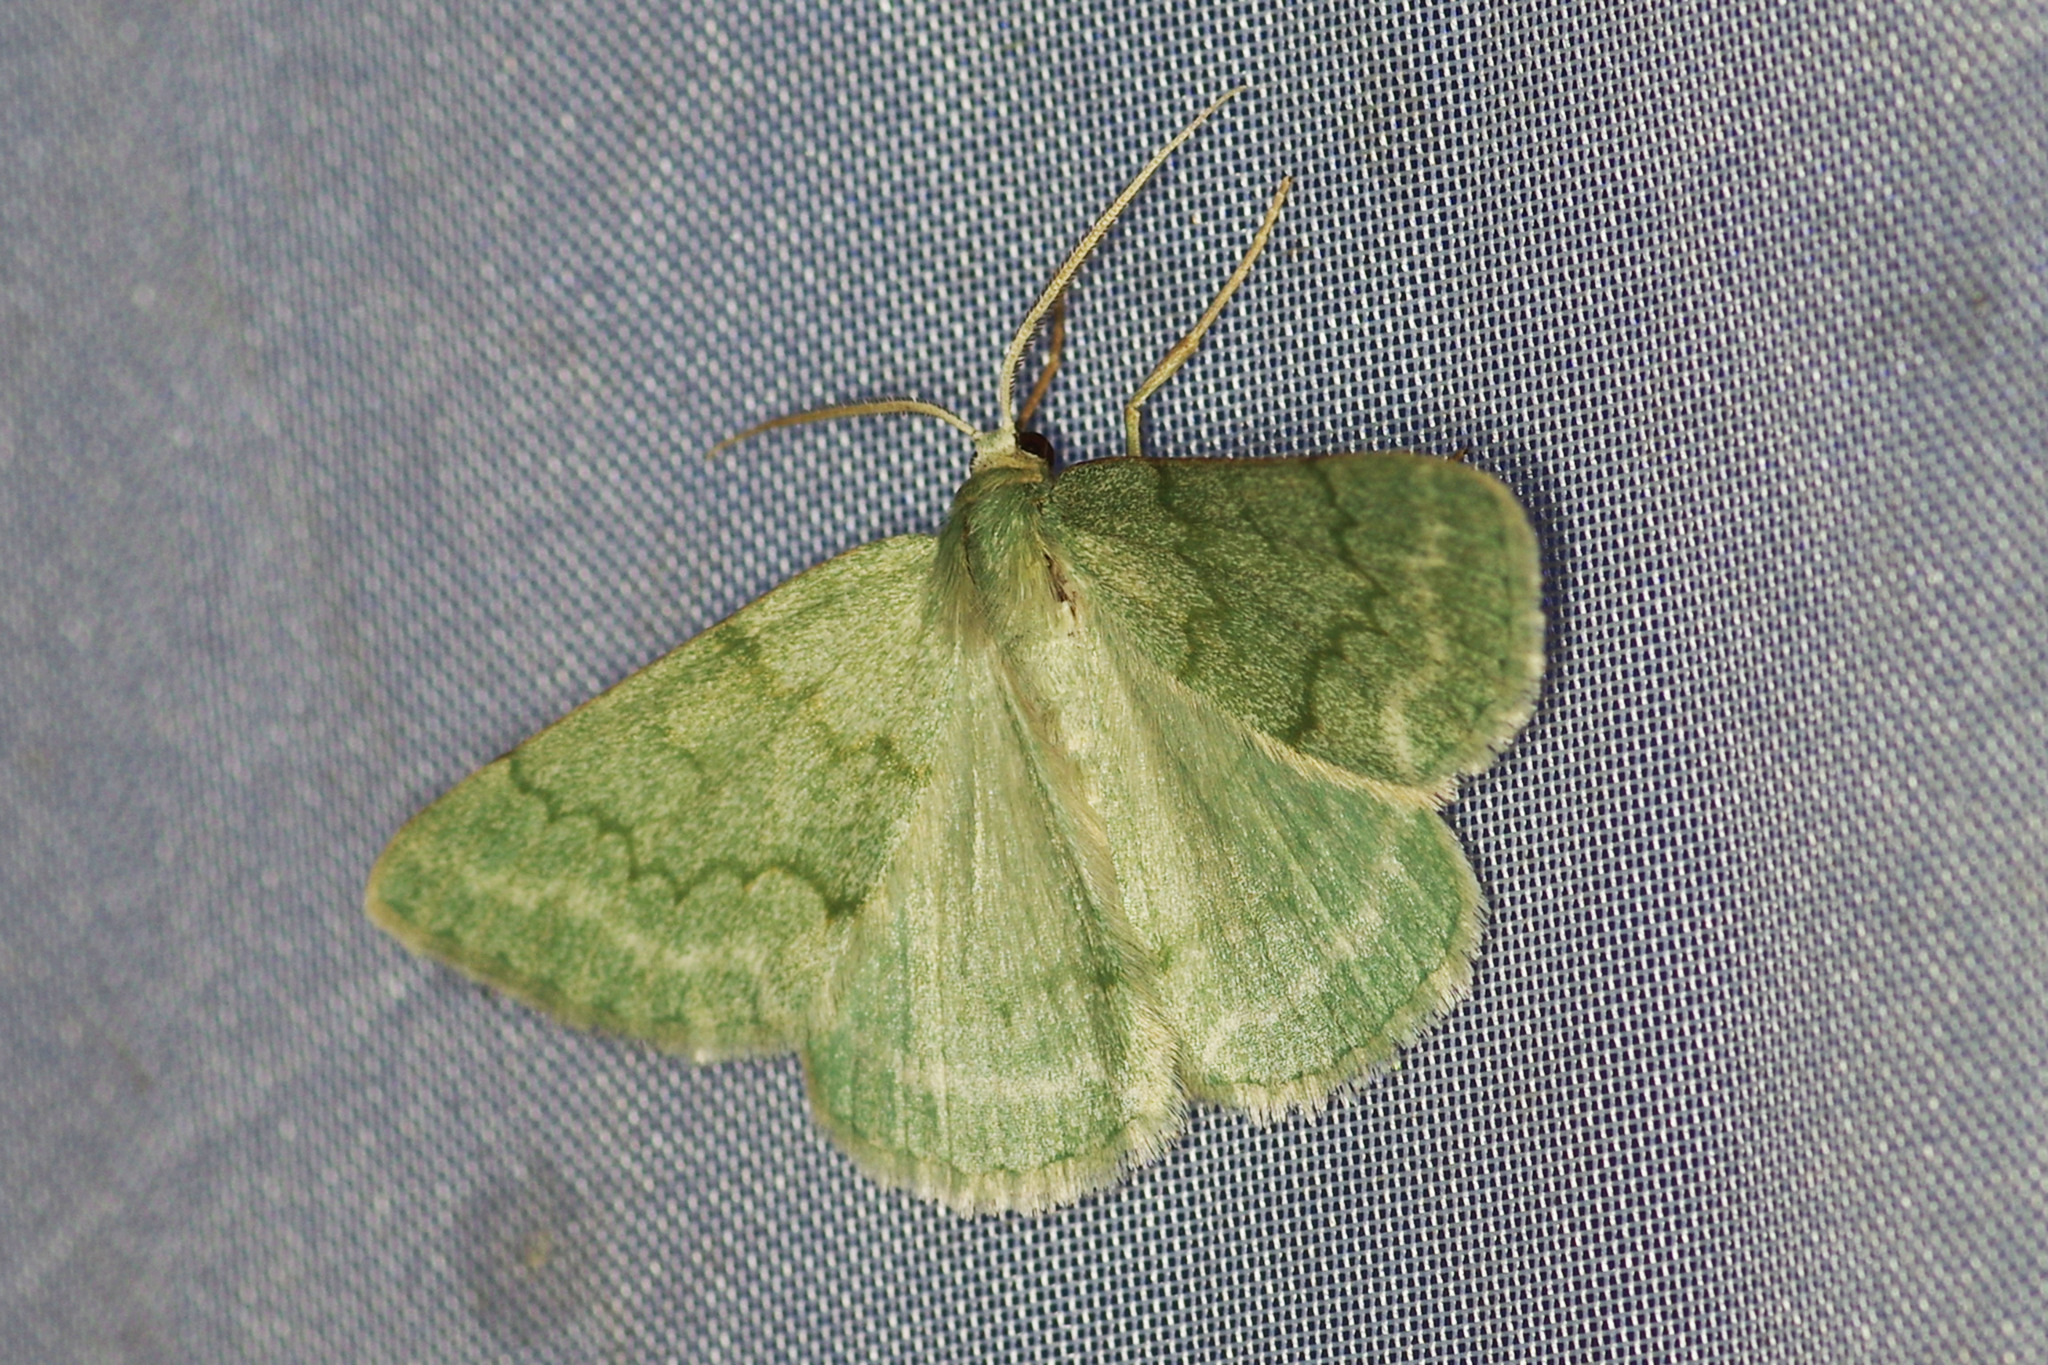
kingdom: Animalia
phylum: Arthropoda
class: Insecta
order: Lepidoptera
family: Geometridae
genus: Pseudoterpna
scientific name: Pseudoterpna pruinata
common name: Grass emerald
